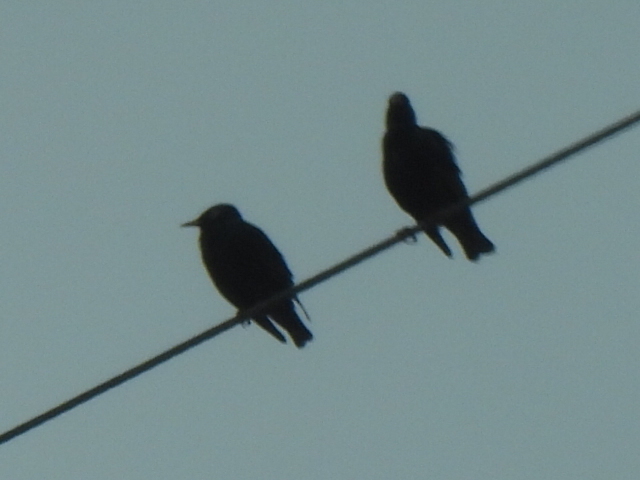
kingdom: Animalia
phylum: Chordata
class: Aves
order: Passeriformes
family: Sturnidae
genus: Sturnus
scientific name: Sturnus vulgaris
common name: Common starling
